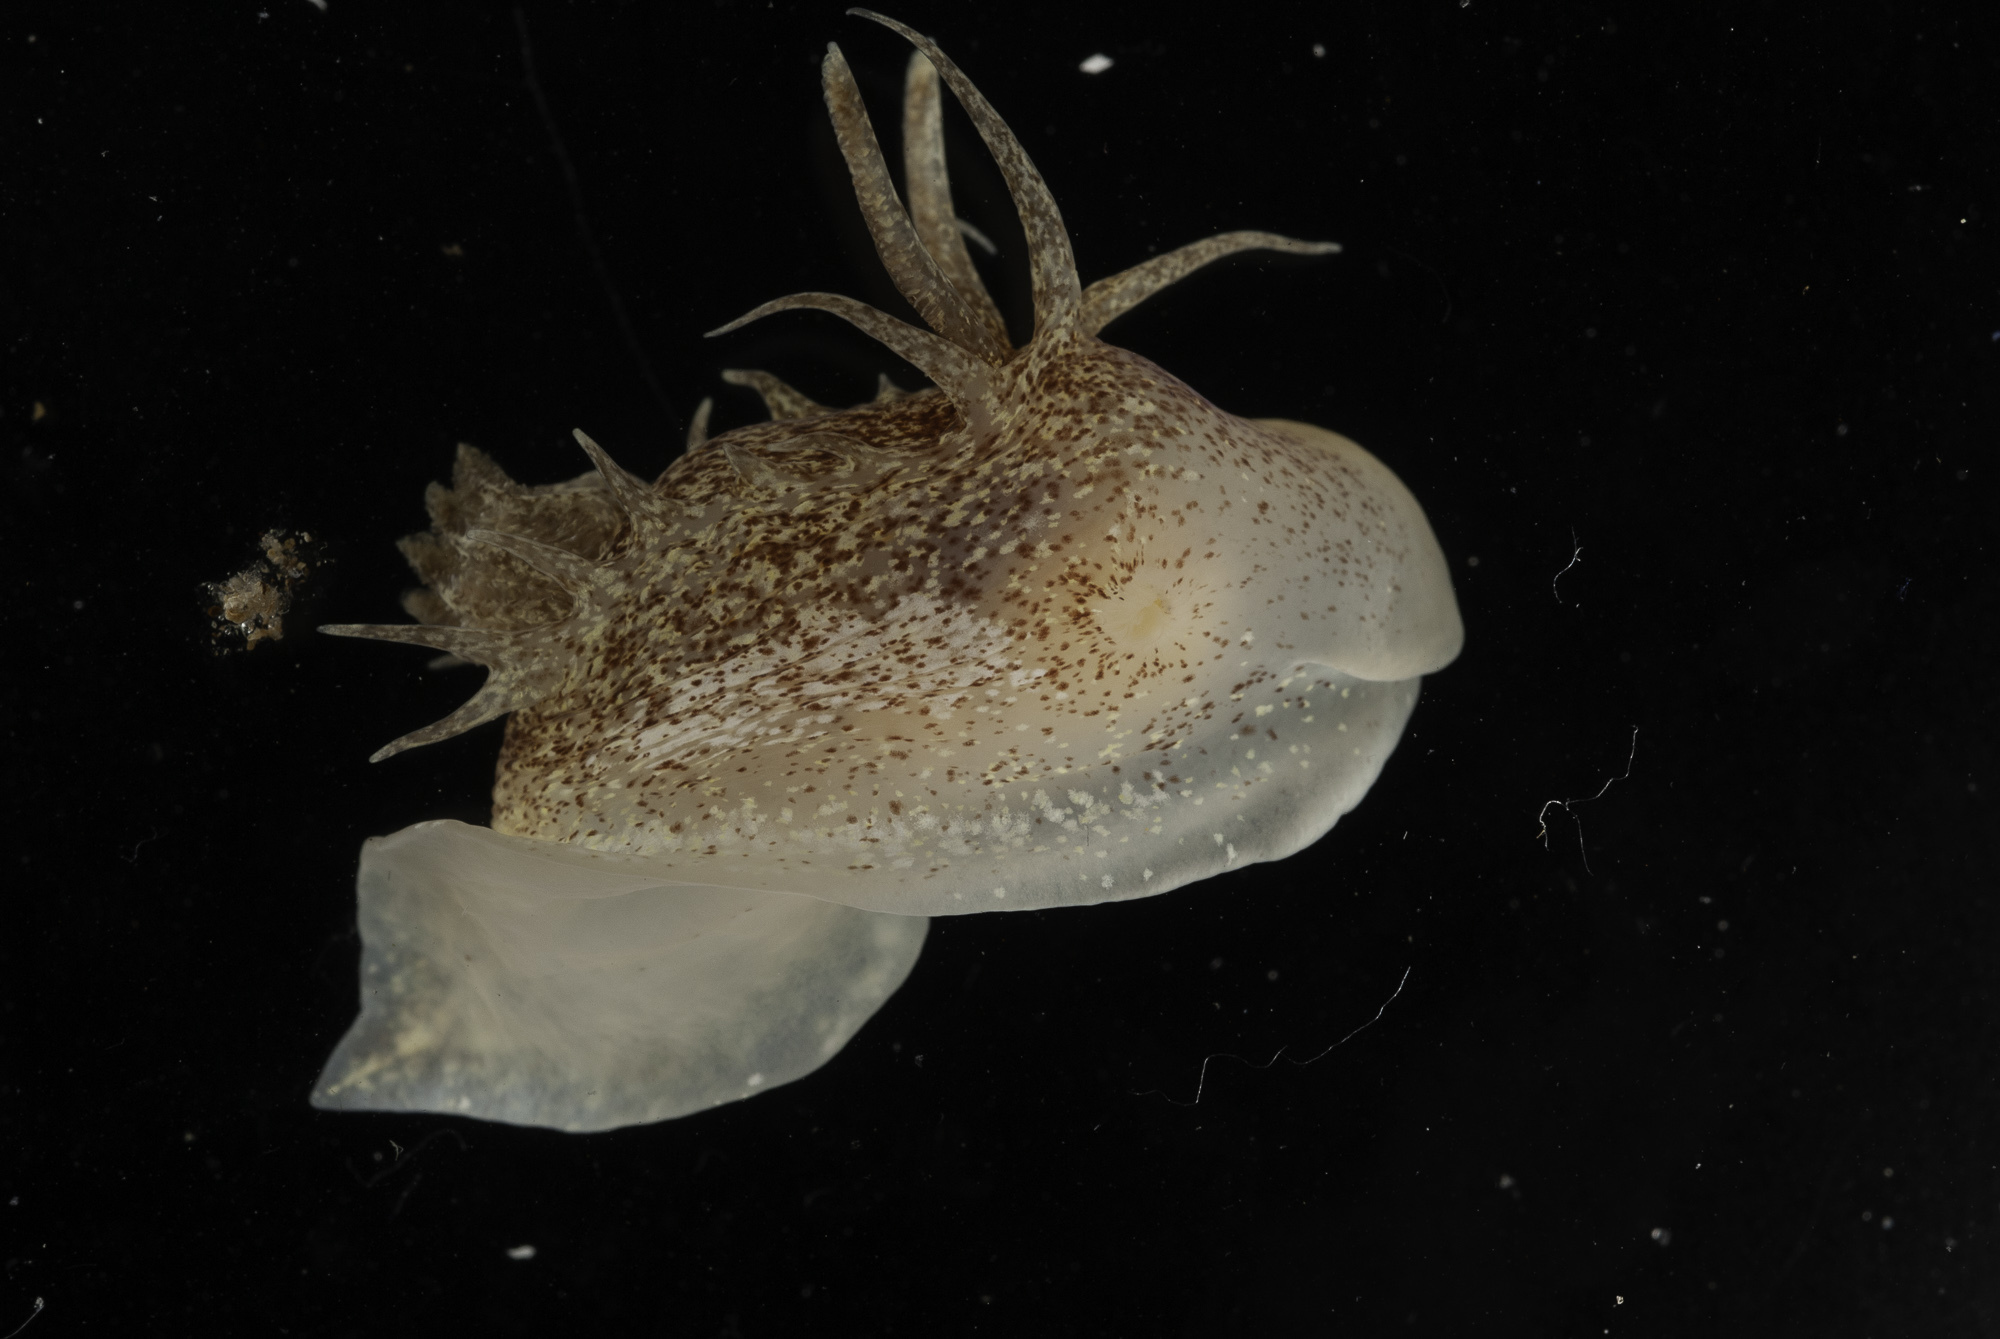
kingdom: Animalia
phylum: Mollusca
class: Gastropoda
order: Nudibranchia
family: Goniodorididae
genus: Okenia
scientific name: Okenia pulchella
